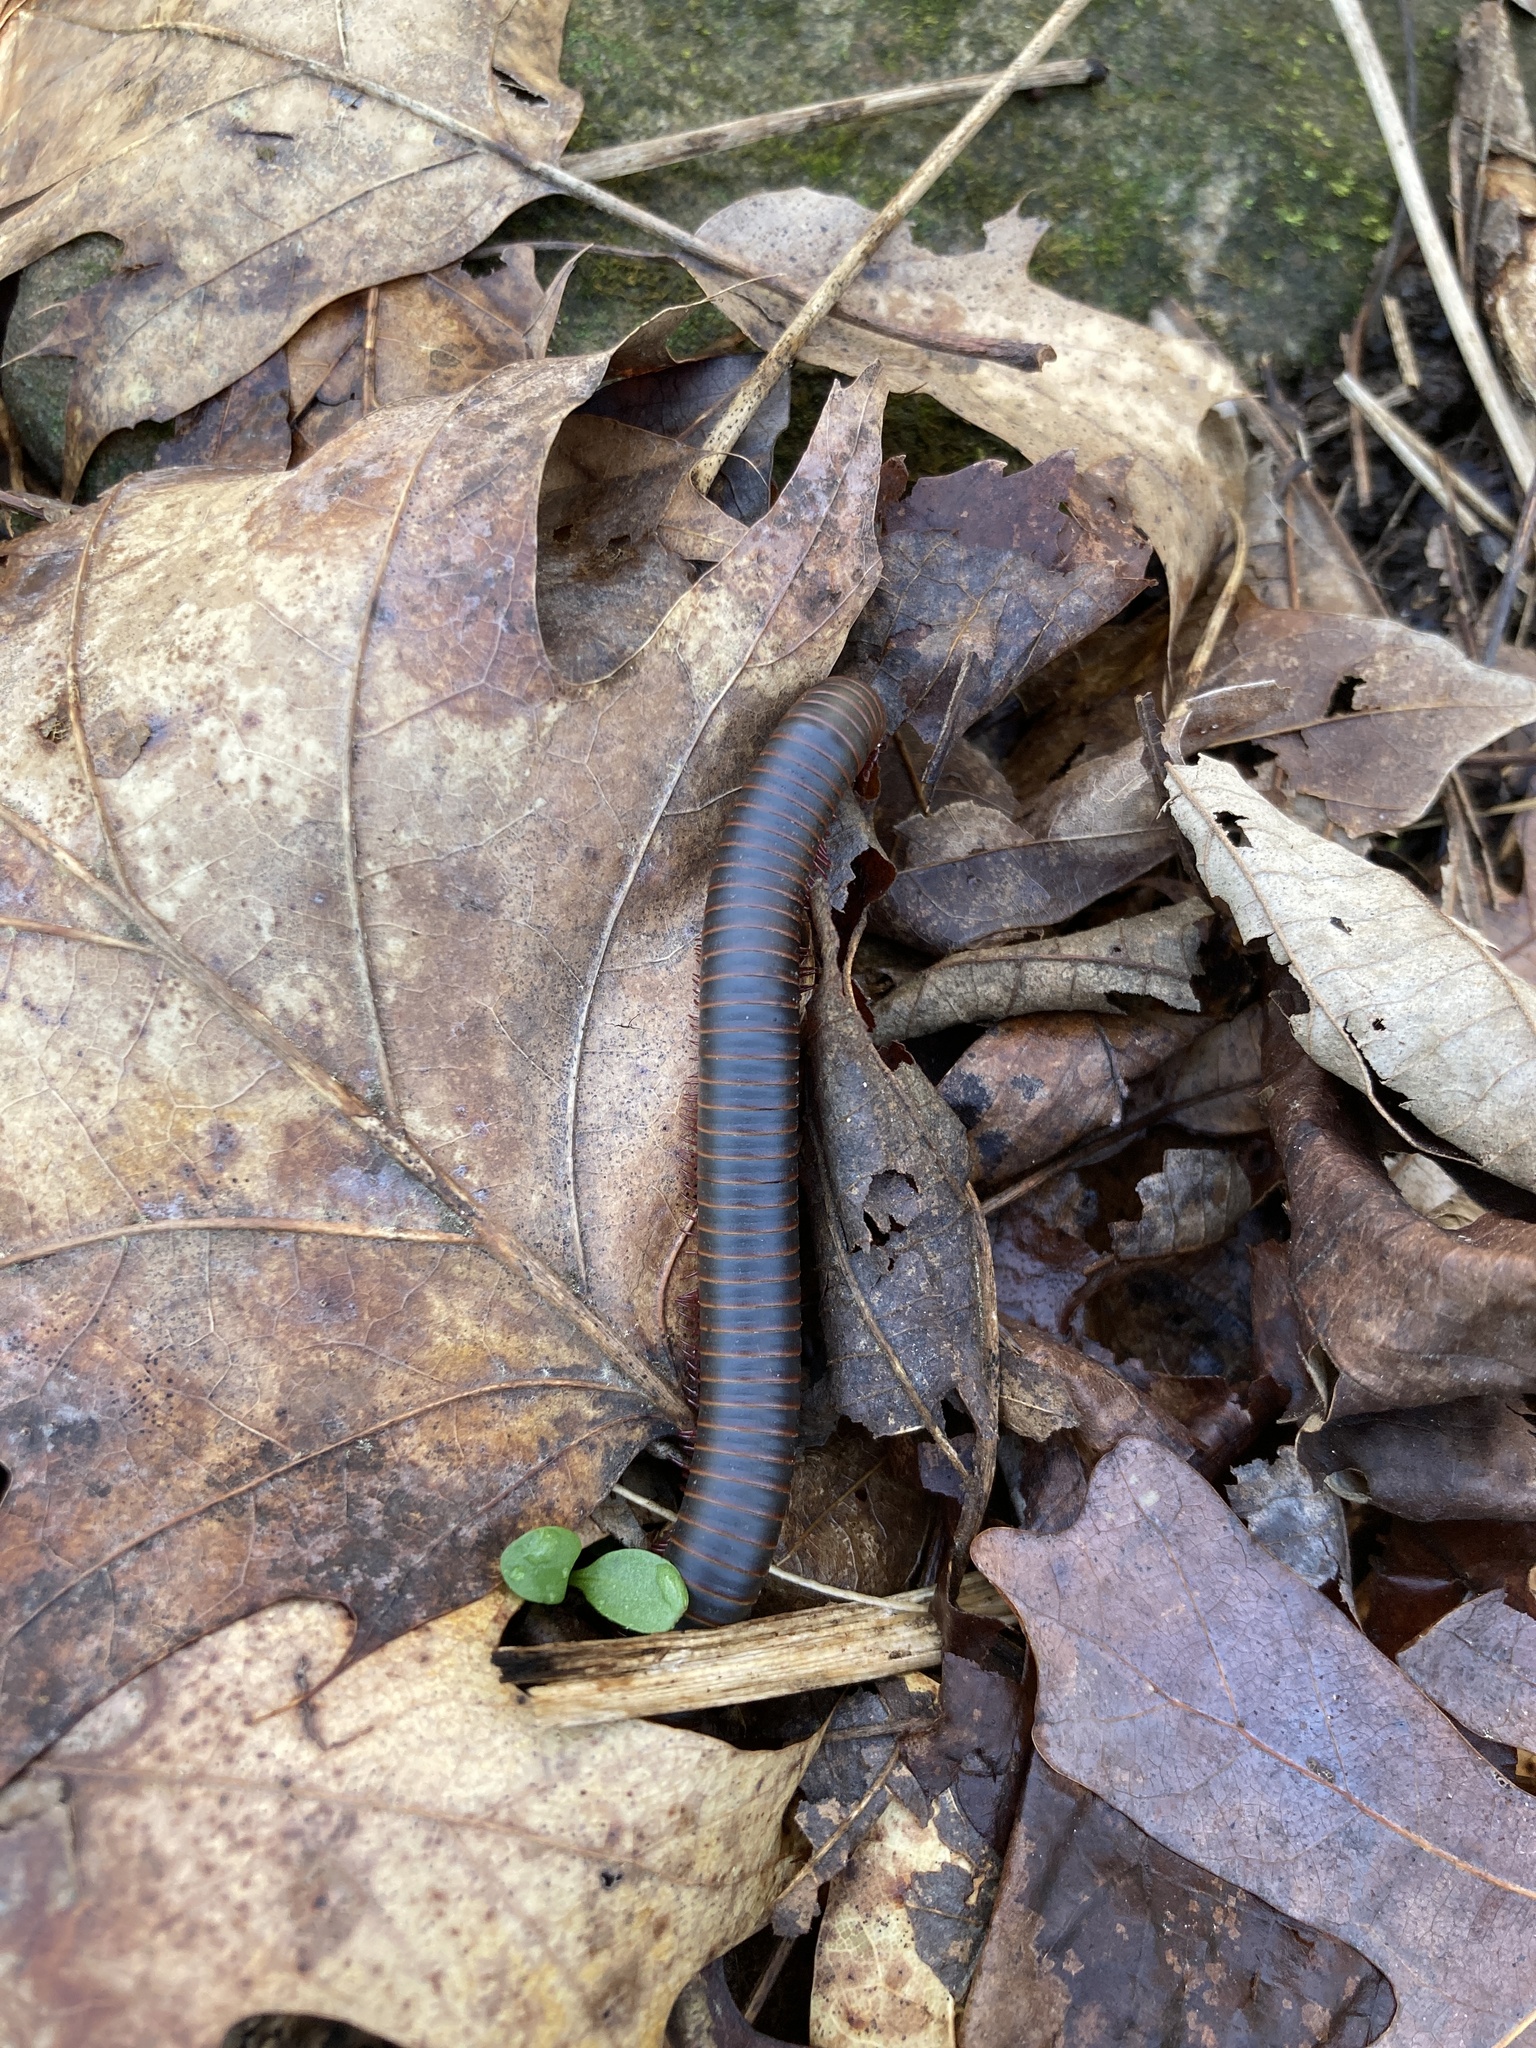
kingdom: Animalia
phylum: Arthropoda
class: Diplopoda
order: Spirobolida
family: Spirobolidae
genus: Narceus
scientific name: Narceus
